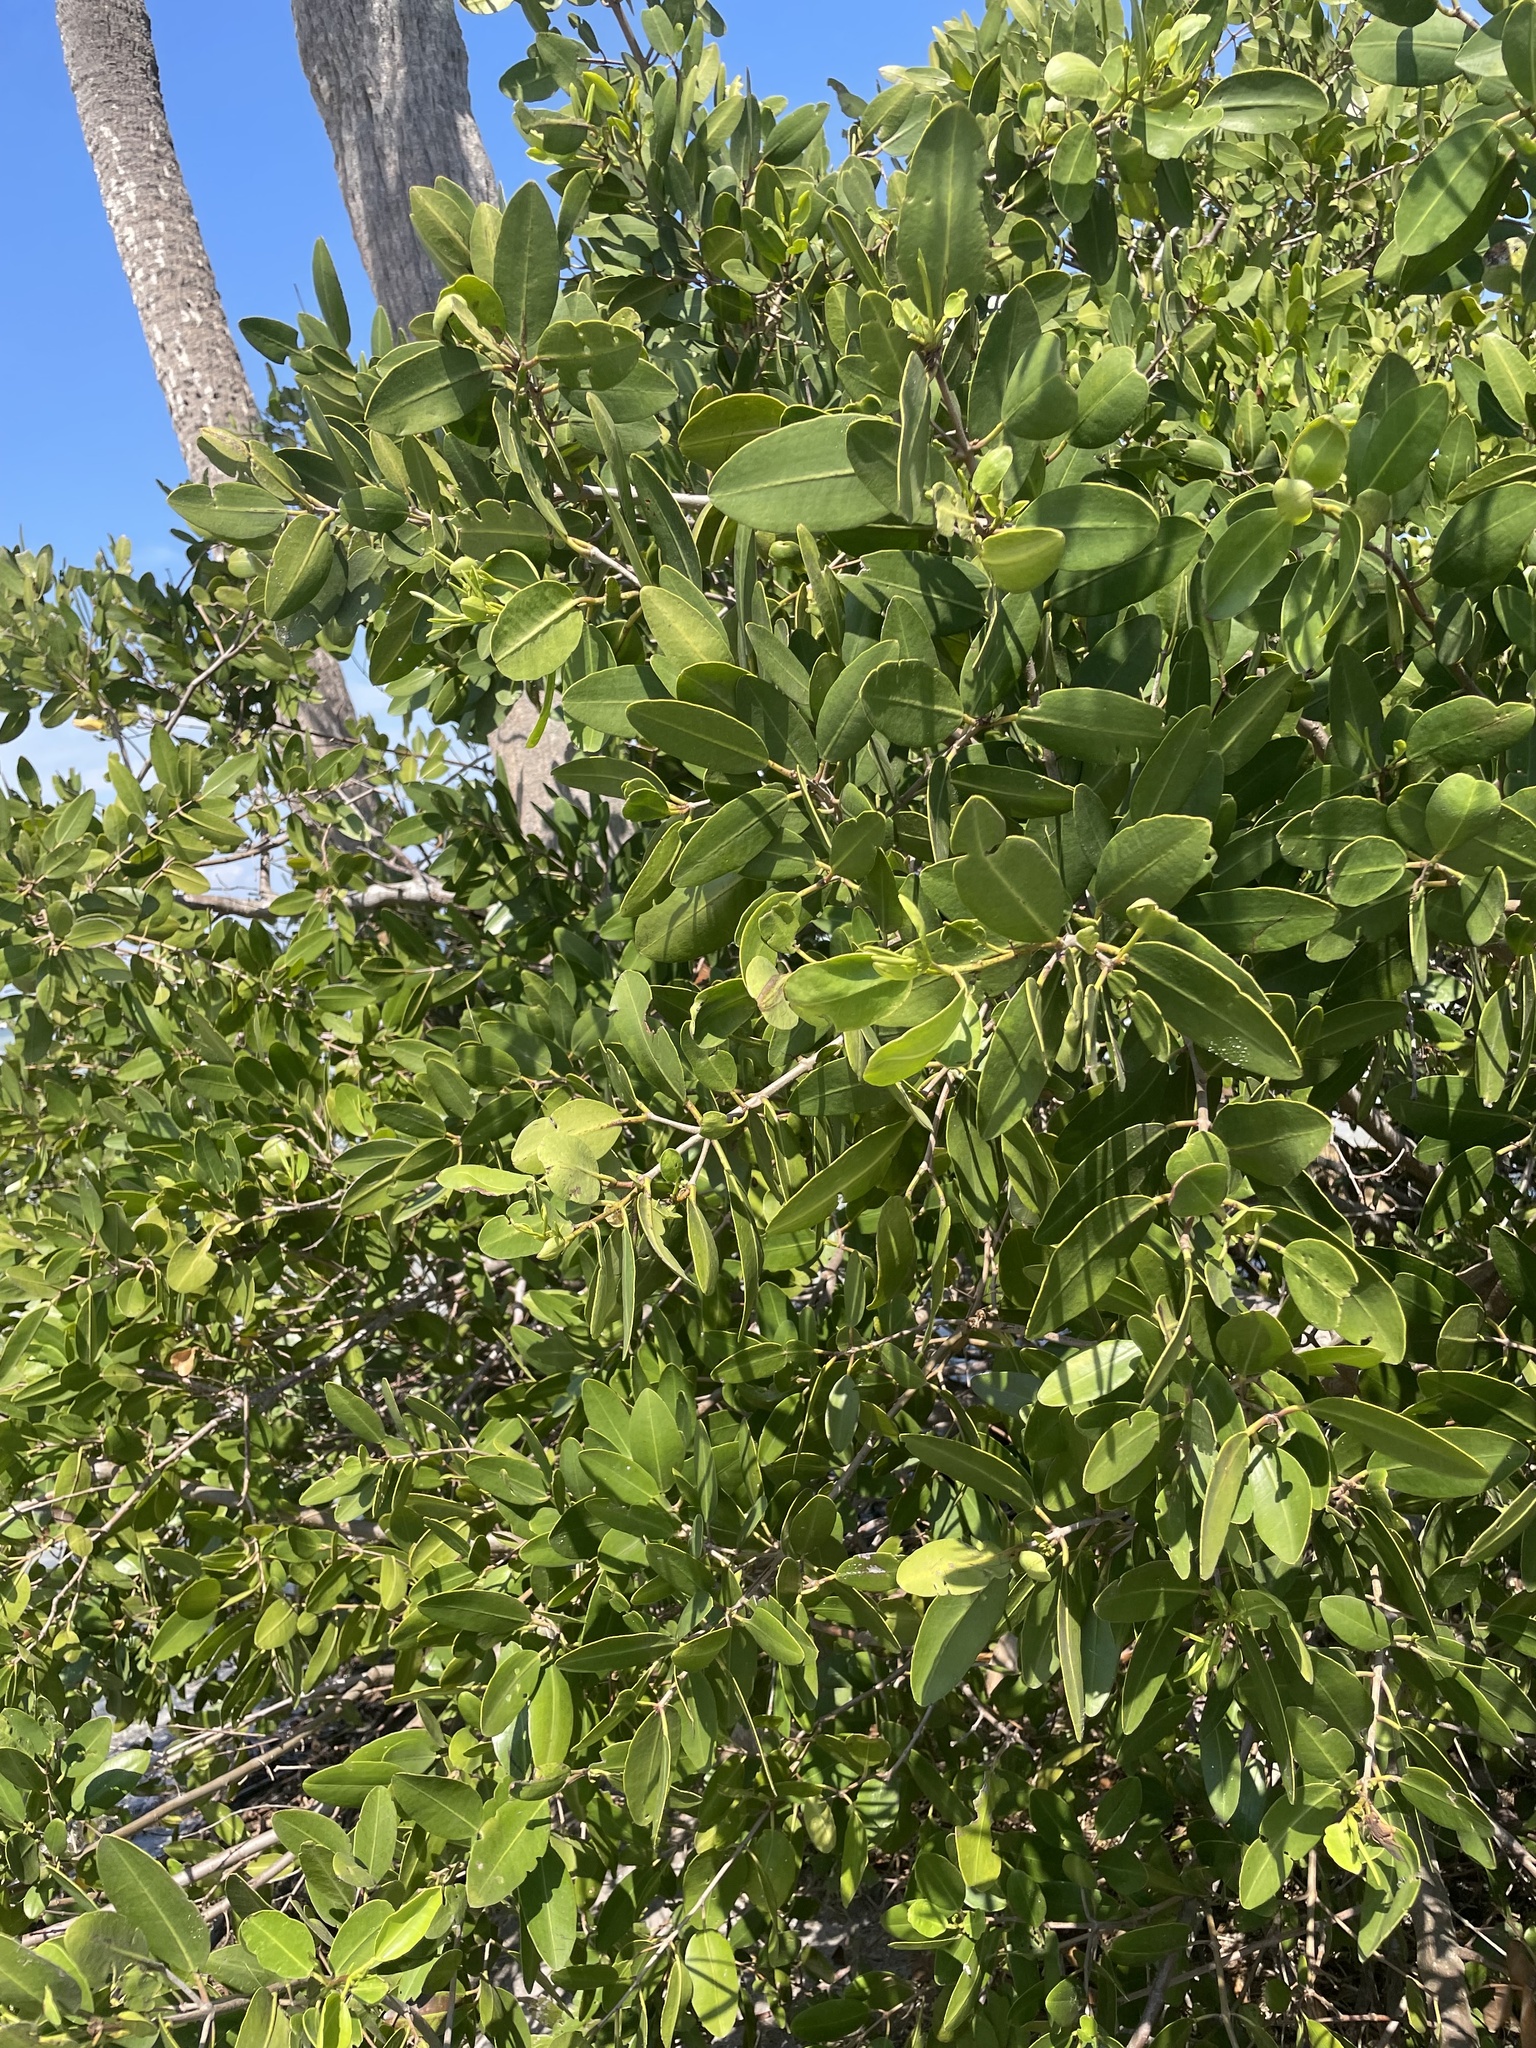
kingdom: Plantae
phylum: Tracheophyta
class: Magnoliopsida
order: Myrtales
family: Combretaceae
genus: Laguncularia
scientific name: Laguncularia racemosa
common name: White mangrove
